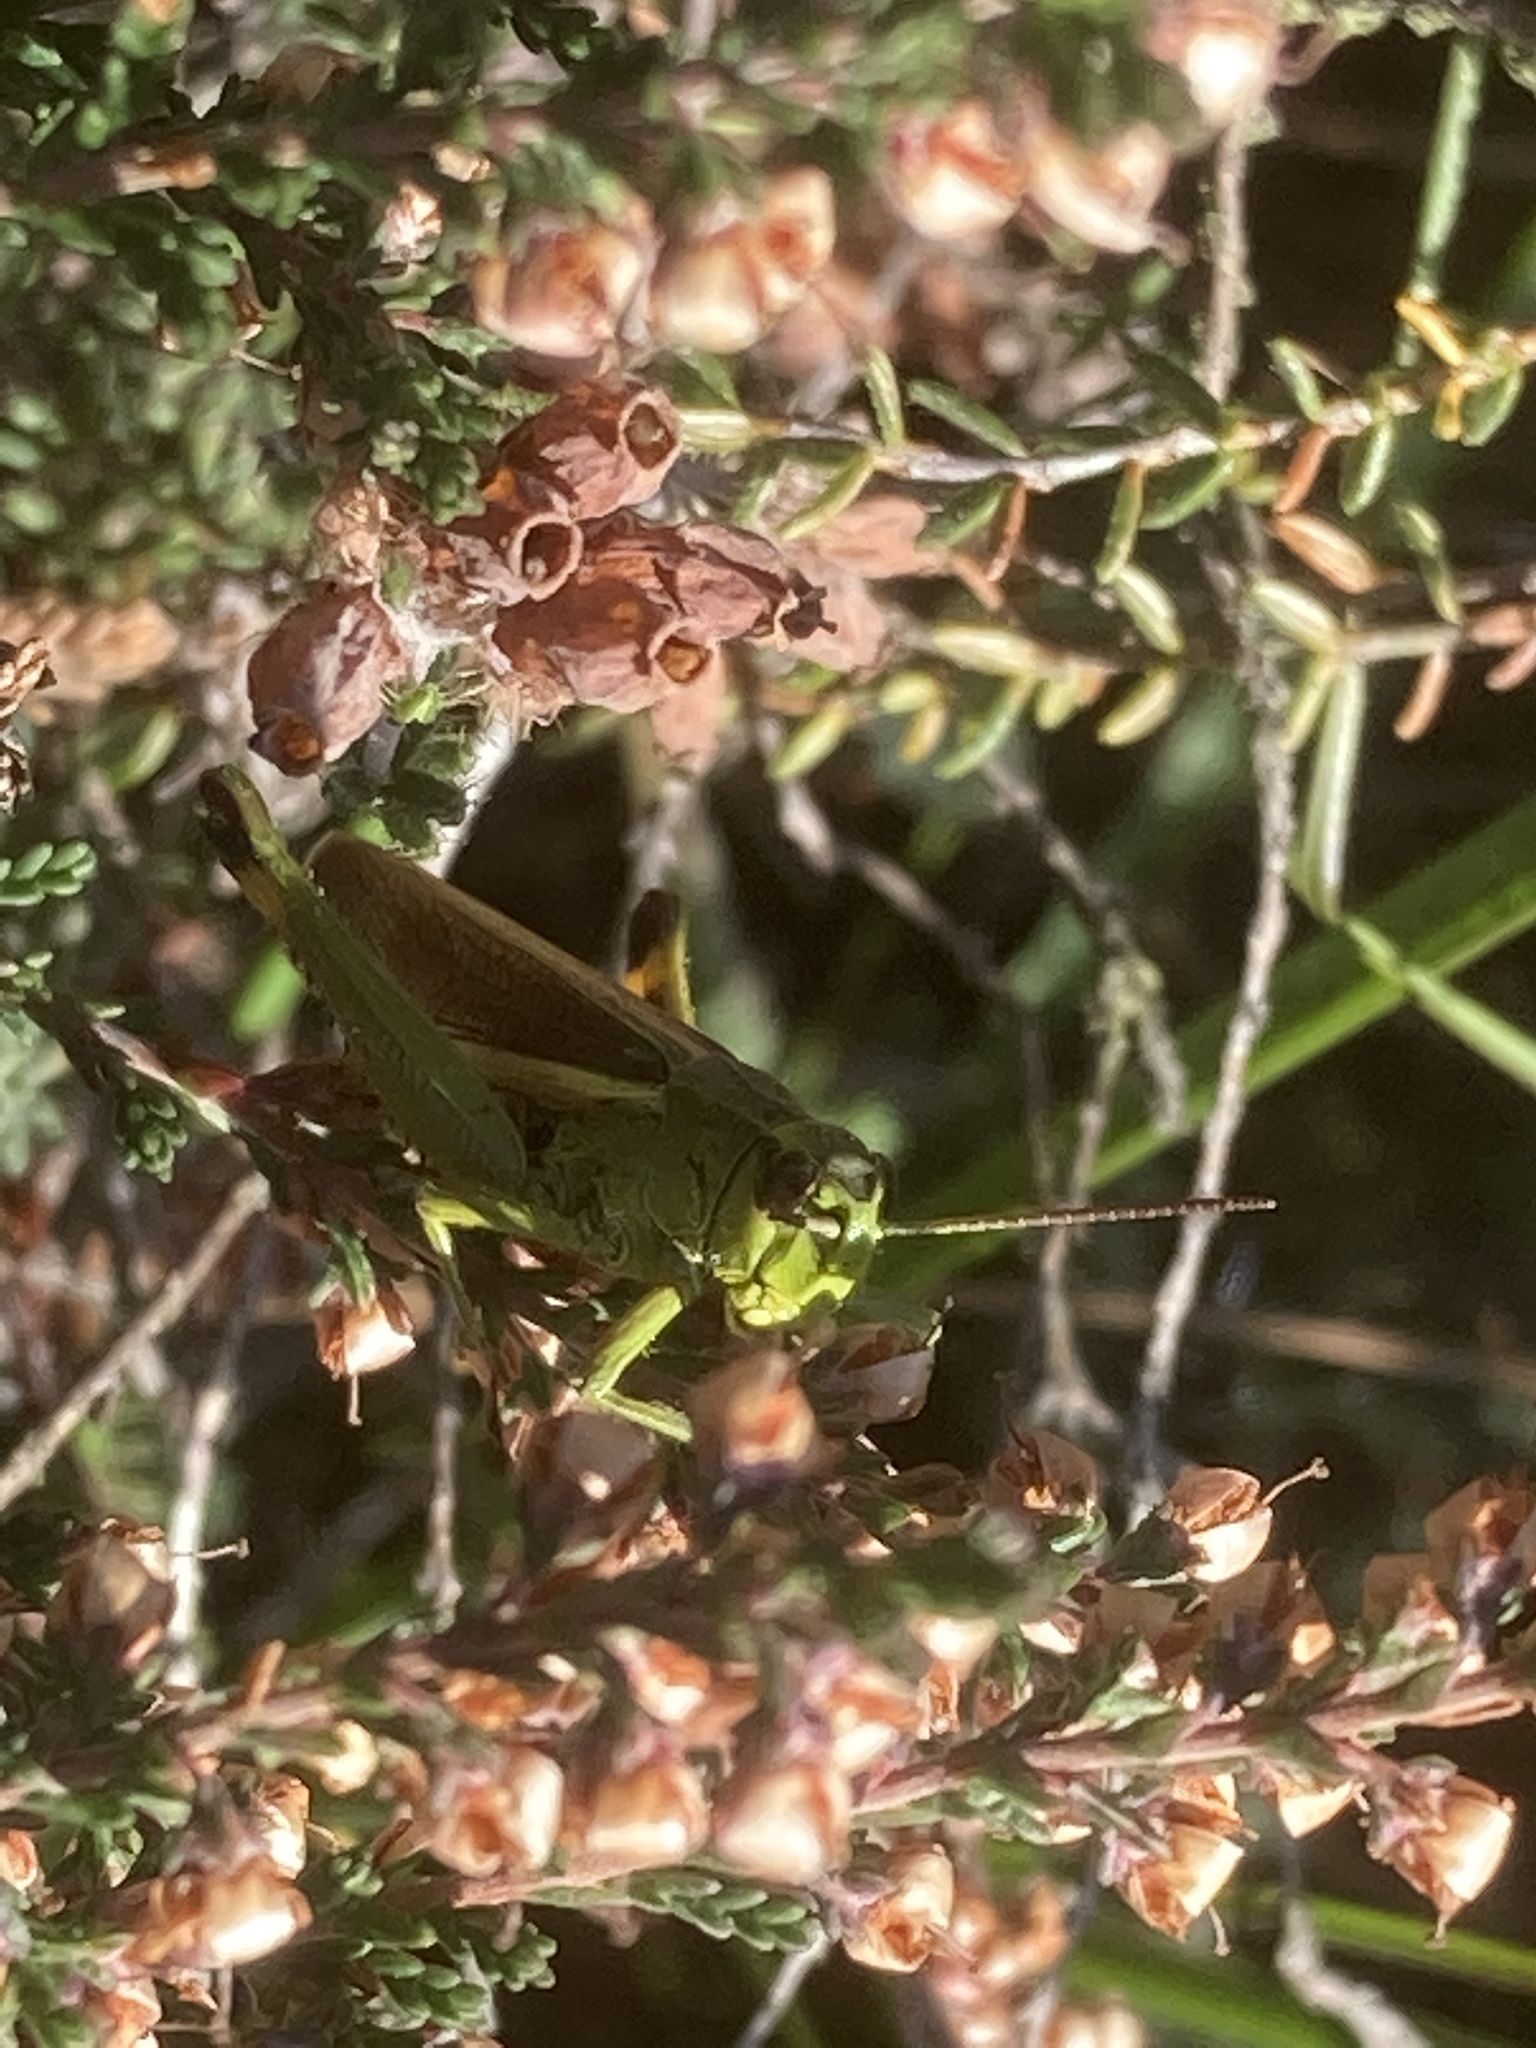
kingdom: Animalia
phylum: Arthropoda
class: Insecta
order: Orthoptera
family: Acrididae
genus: Stethophyma
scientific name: Stethophyma grossum
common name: Large marsh grasshopper
